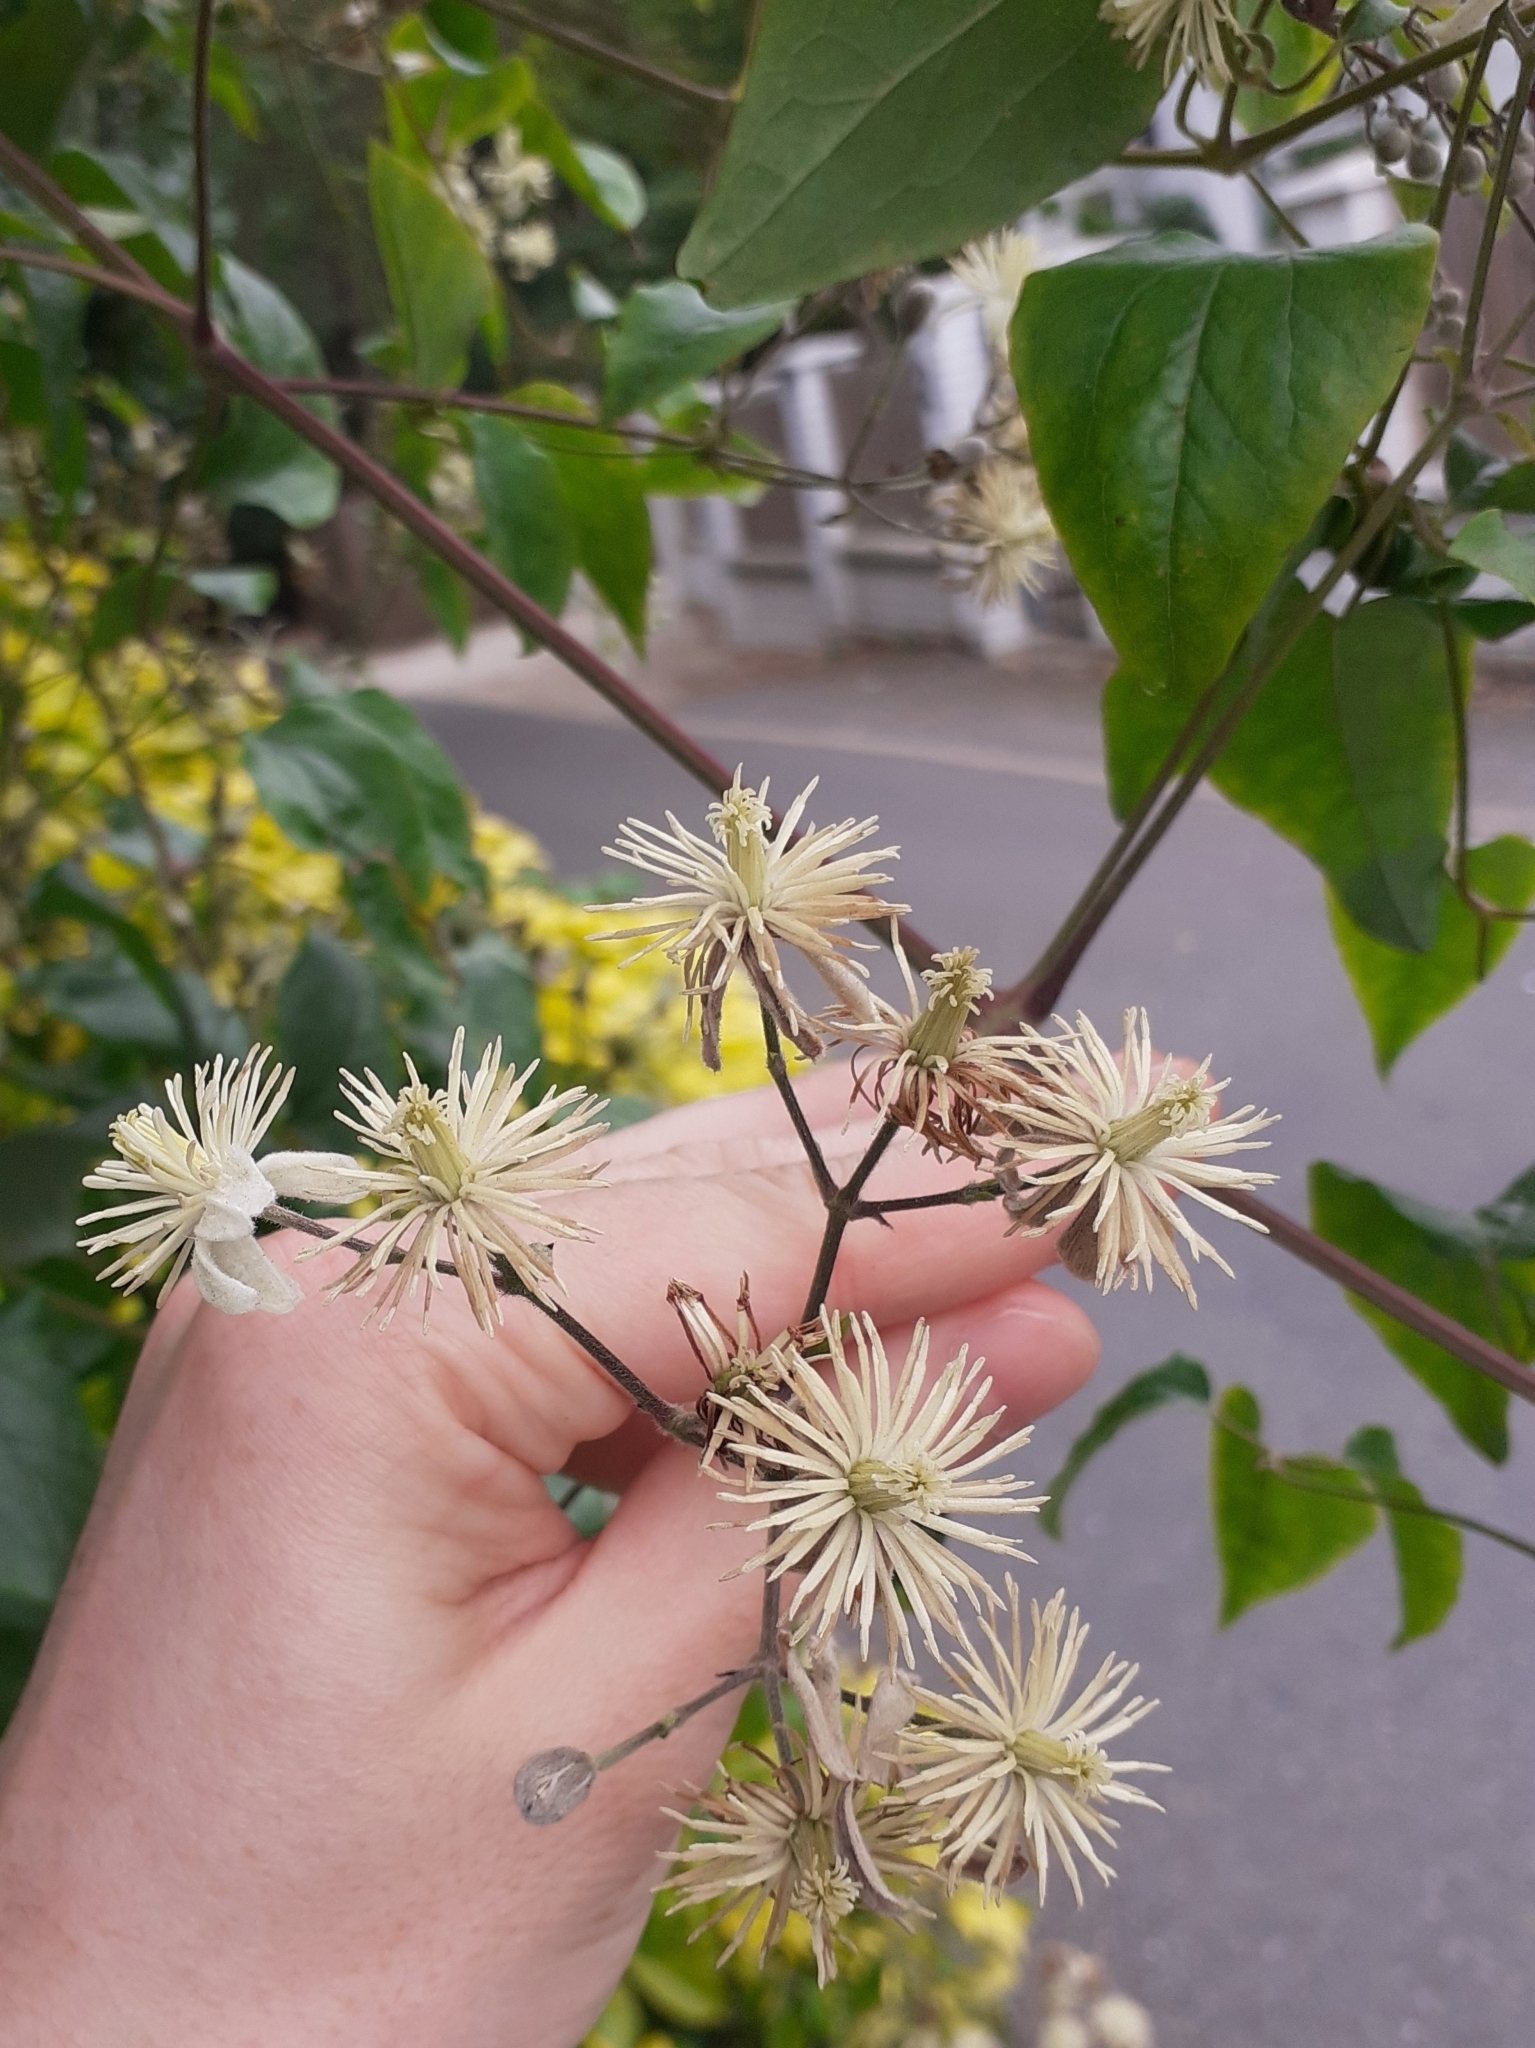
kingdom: Plantae
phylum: Tracheophyta
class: Magnoliopsida
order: Ranunculales
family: Ranunculaceae
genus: Clematis
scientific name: Clematis vitalba
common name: Evergreen clematis
